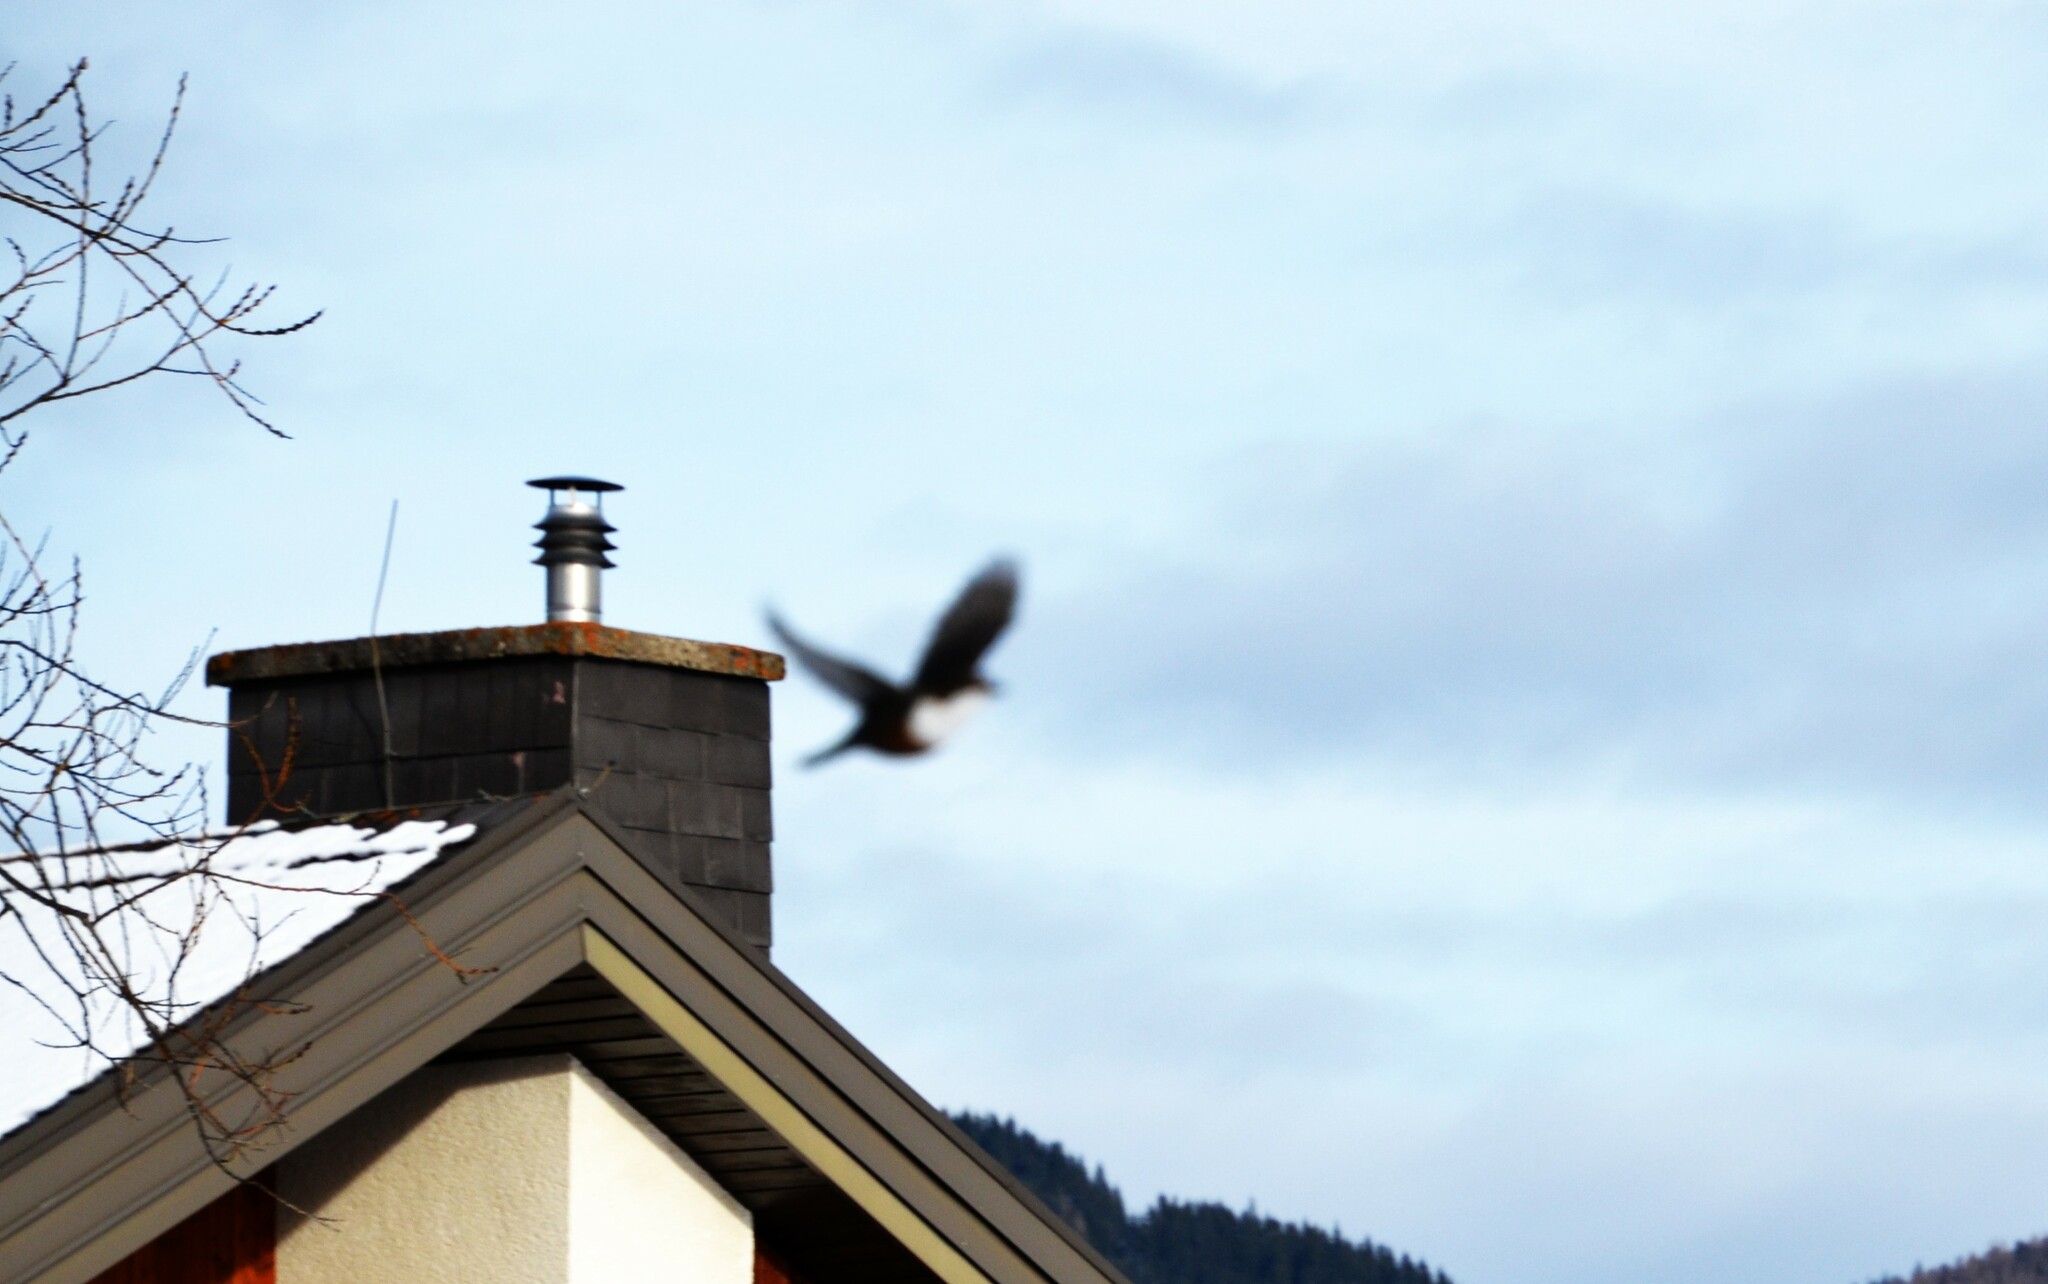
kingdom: Animalia
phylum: Chordata
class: Aves
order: Passeriformes
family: Cinclidae
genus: Cinclus
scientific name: Cinclus cinclus
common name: White-throated dipper
